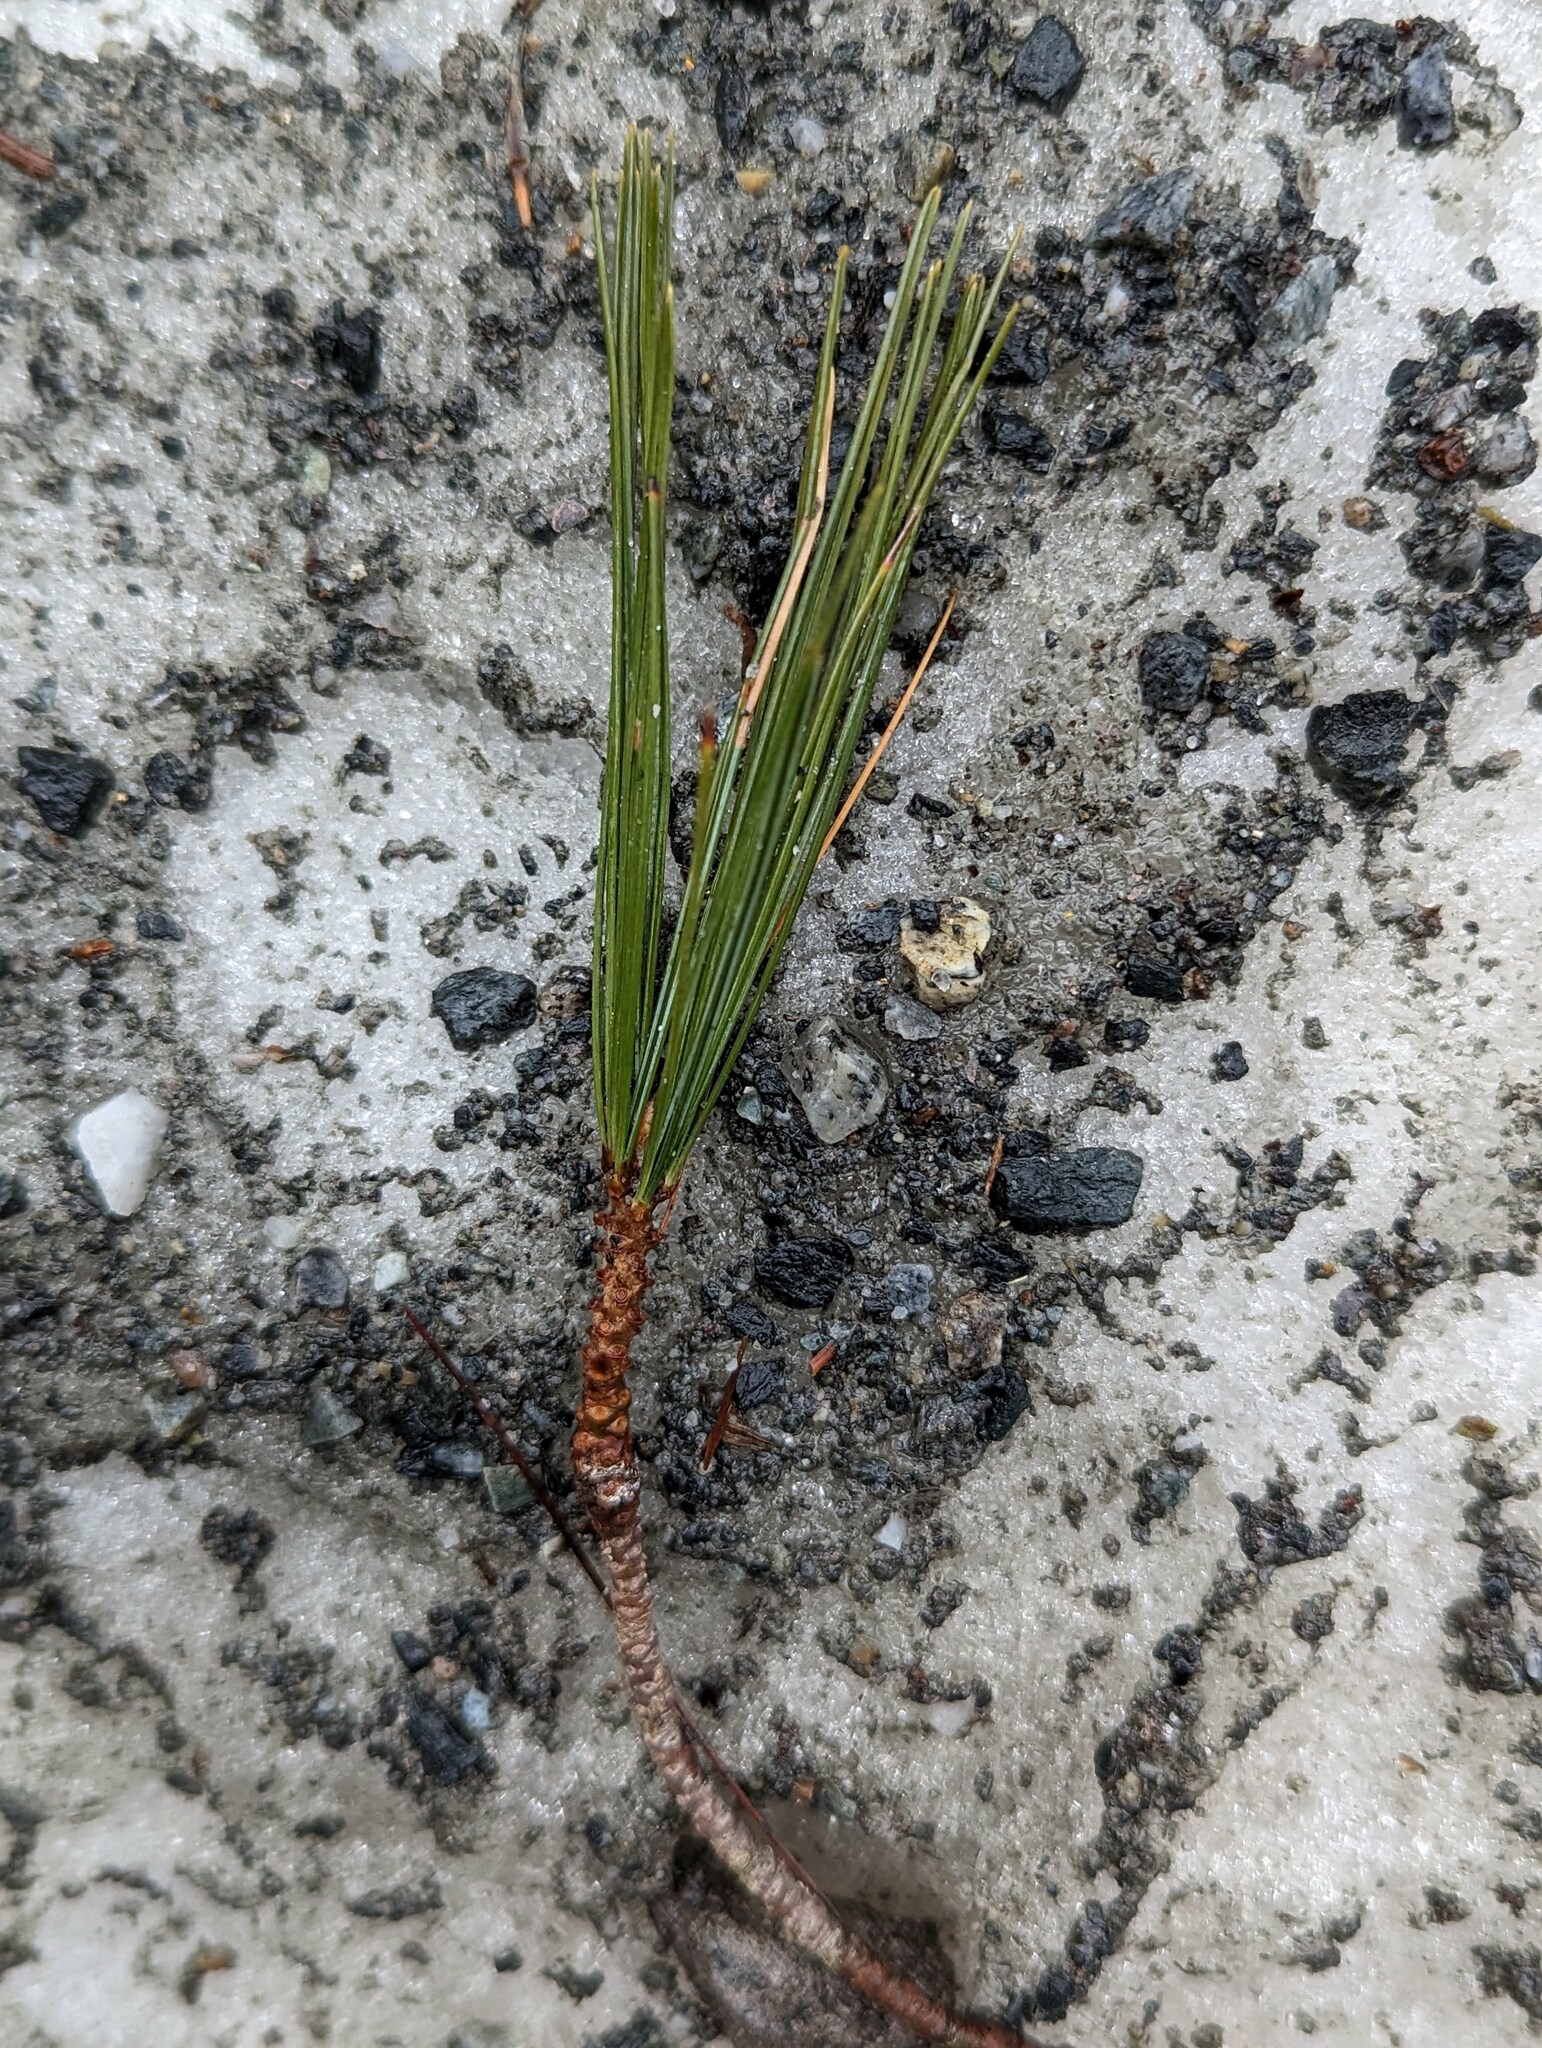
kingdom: Plantae
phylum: Tracheophyta
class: Pinopsida
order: Pinales
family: Pinaceae
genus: Pinus
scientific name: Pinus strobus
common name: Weymouth pine
